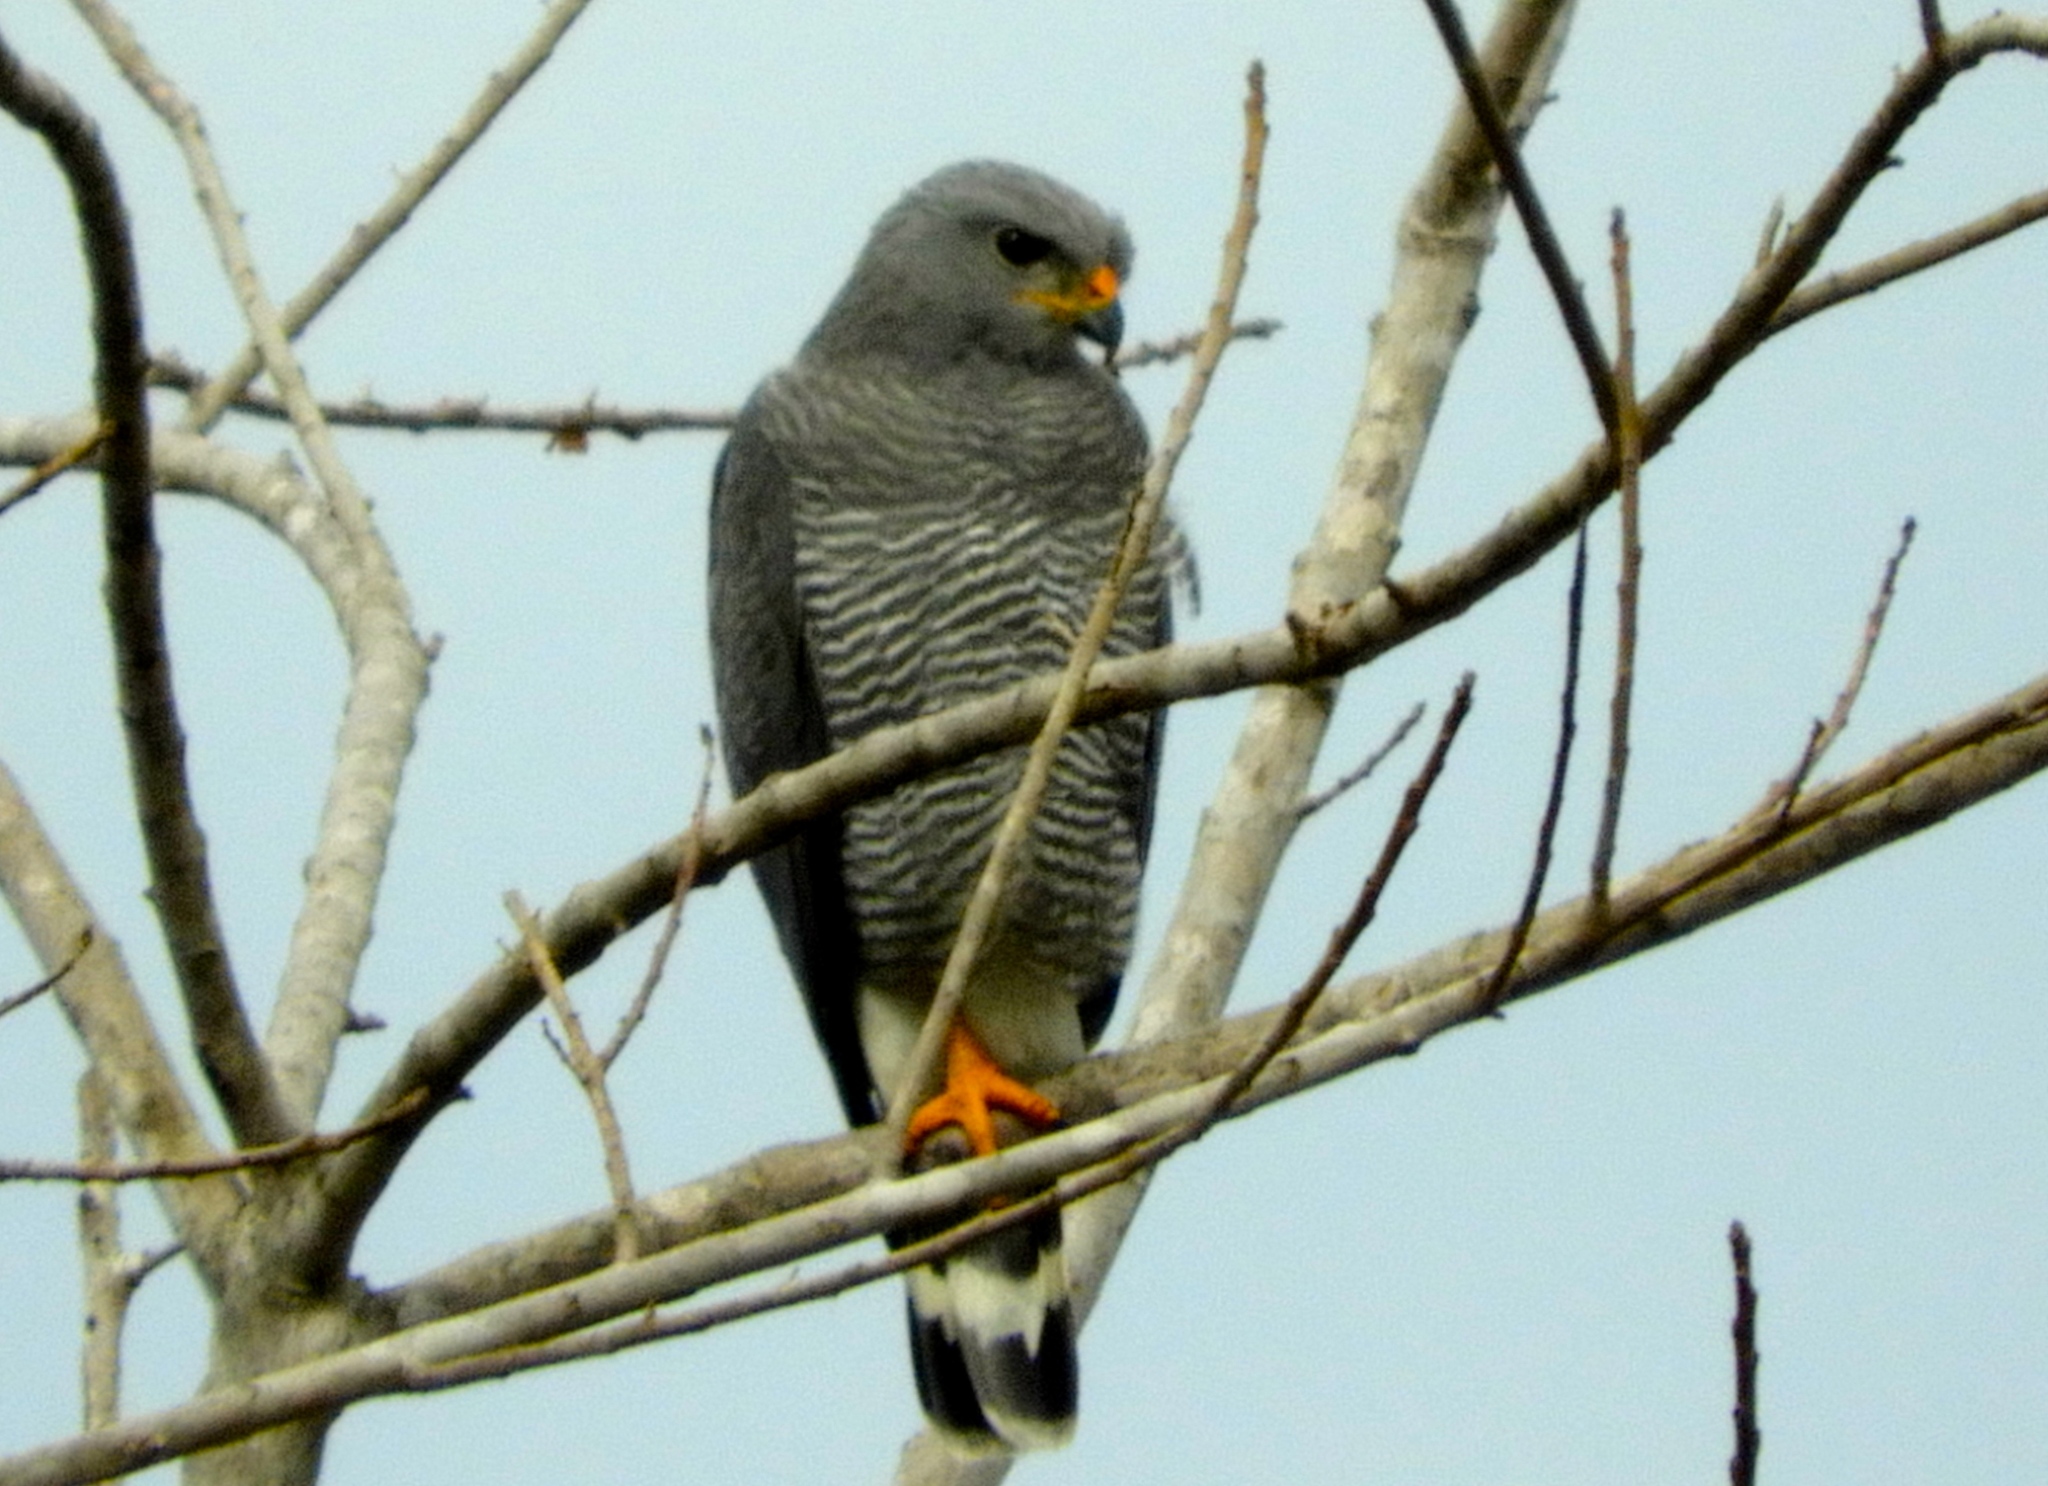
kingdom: Animalia
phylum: Chordata
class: Aves
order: Accipitriformes
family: Accipitridae
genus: Buteo
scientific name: Buteo nitidus
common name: Grey-lined hawk
